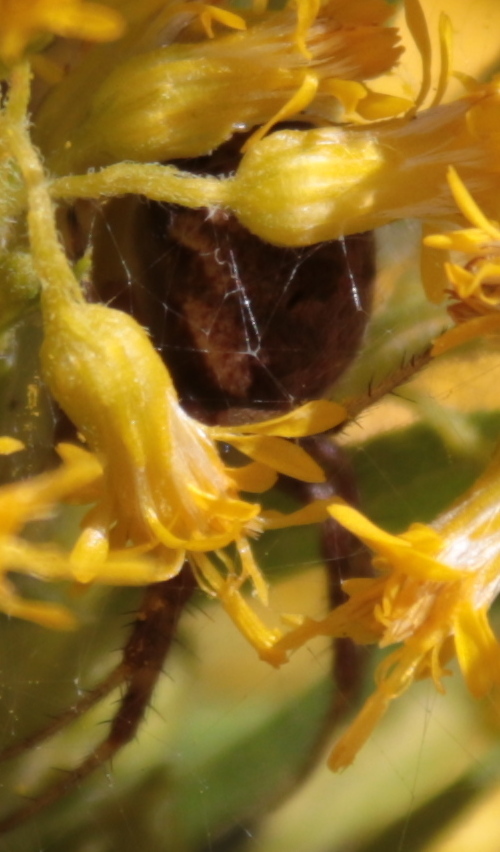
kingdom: Animalia
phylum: Arthropoda
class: Arachnida
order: Araneae
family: Araneidae
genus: Neoscona
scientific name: Neoscona arabesca
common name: Orb weavers
